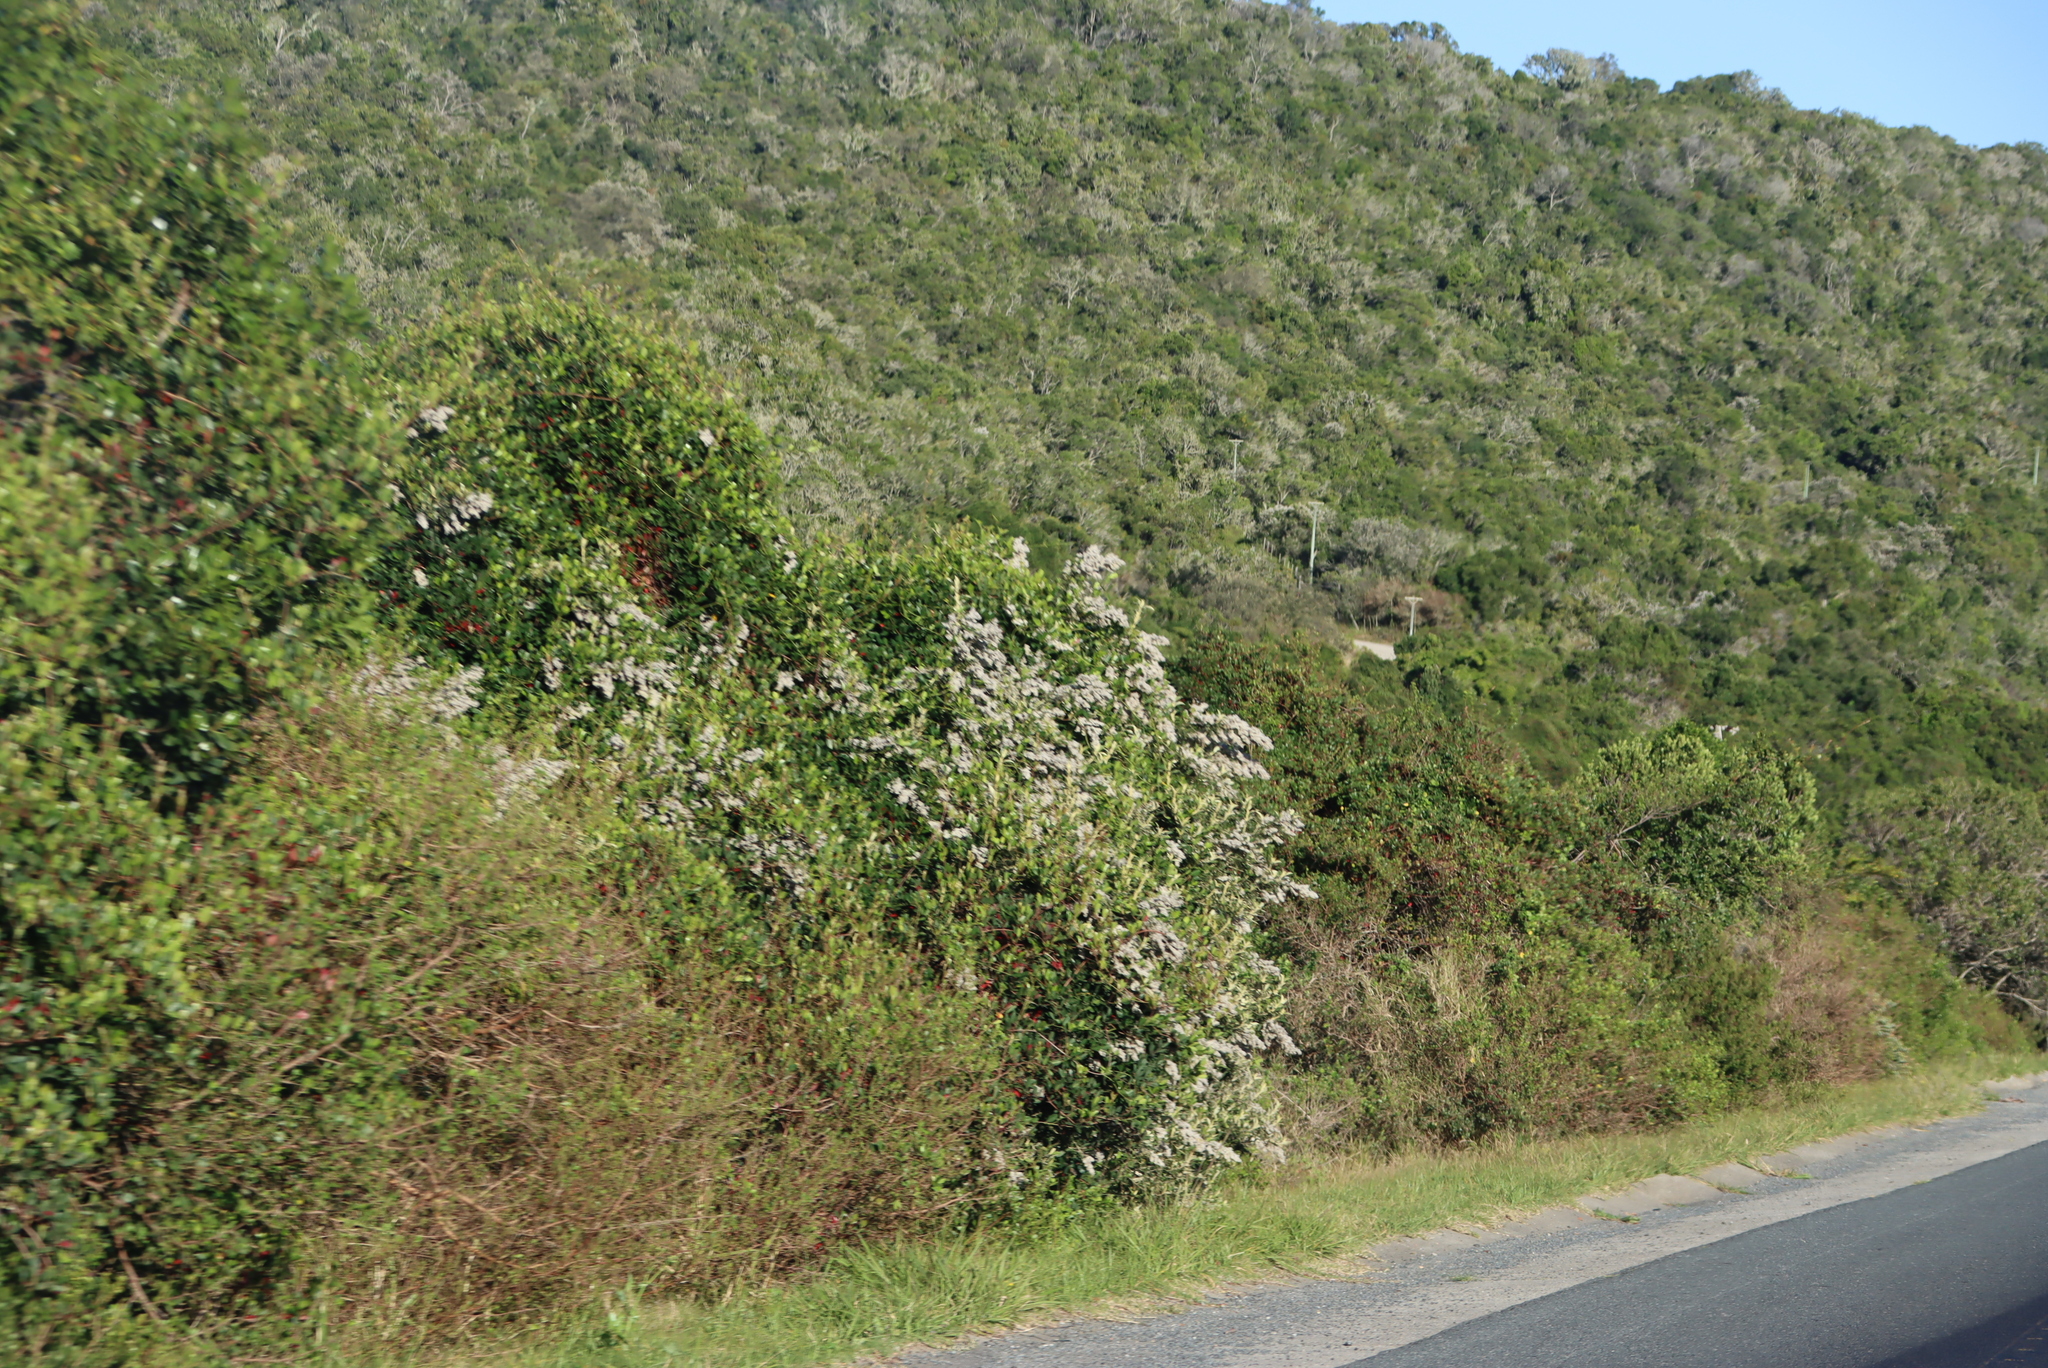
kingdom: Plantae
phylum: Tracheophyta
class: Magnoliopsida
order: Asterales
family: Asteraceae
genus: Tarchonanthus
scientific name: Tarchonanthus littoralis
